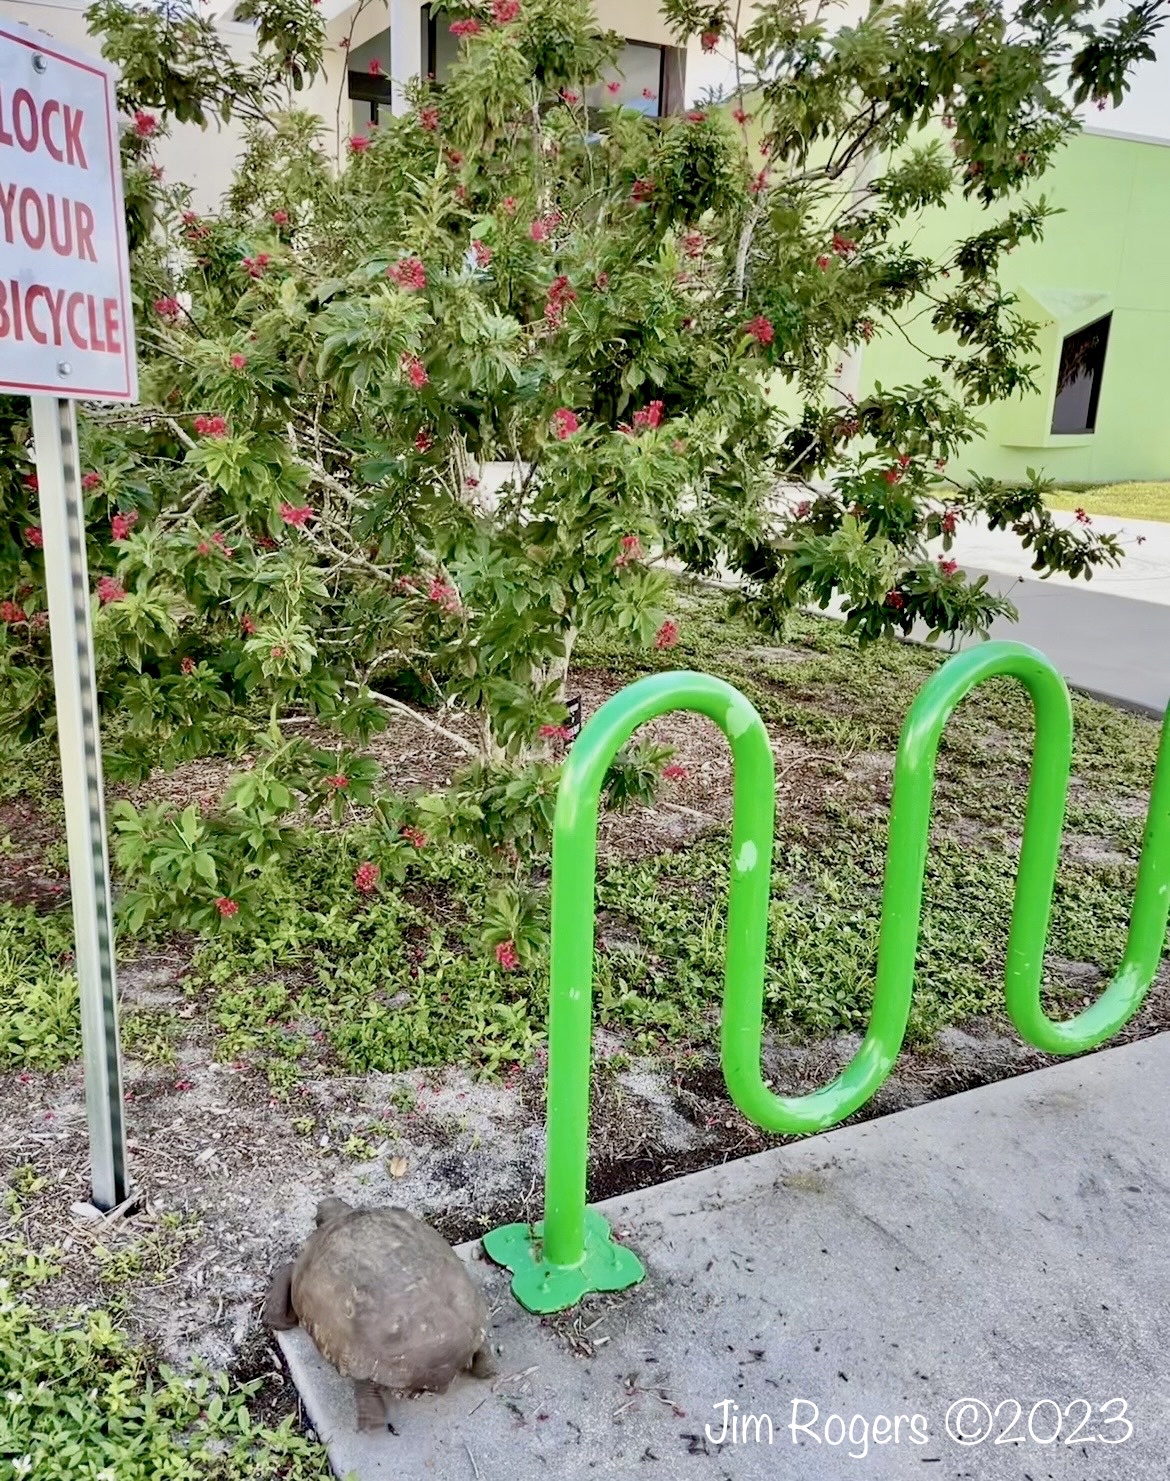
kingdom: Animalia
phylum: Chordata
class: Testudines
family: Testudinidae
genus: Gopherus
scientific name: Gopherus polyphemus
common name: Florida gopher tortoise
